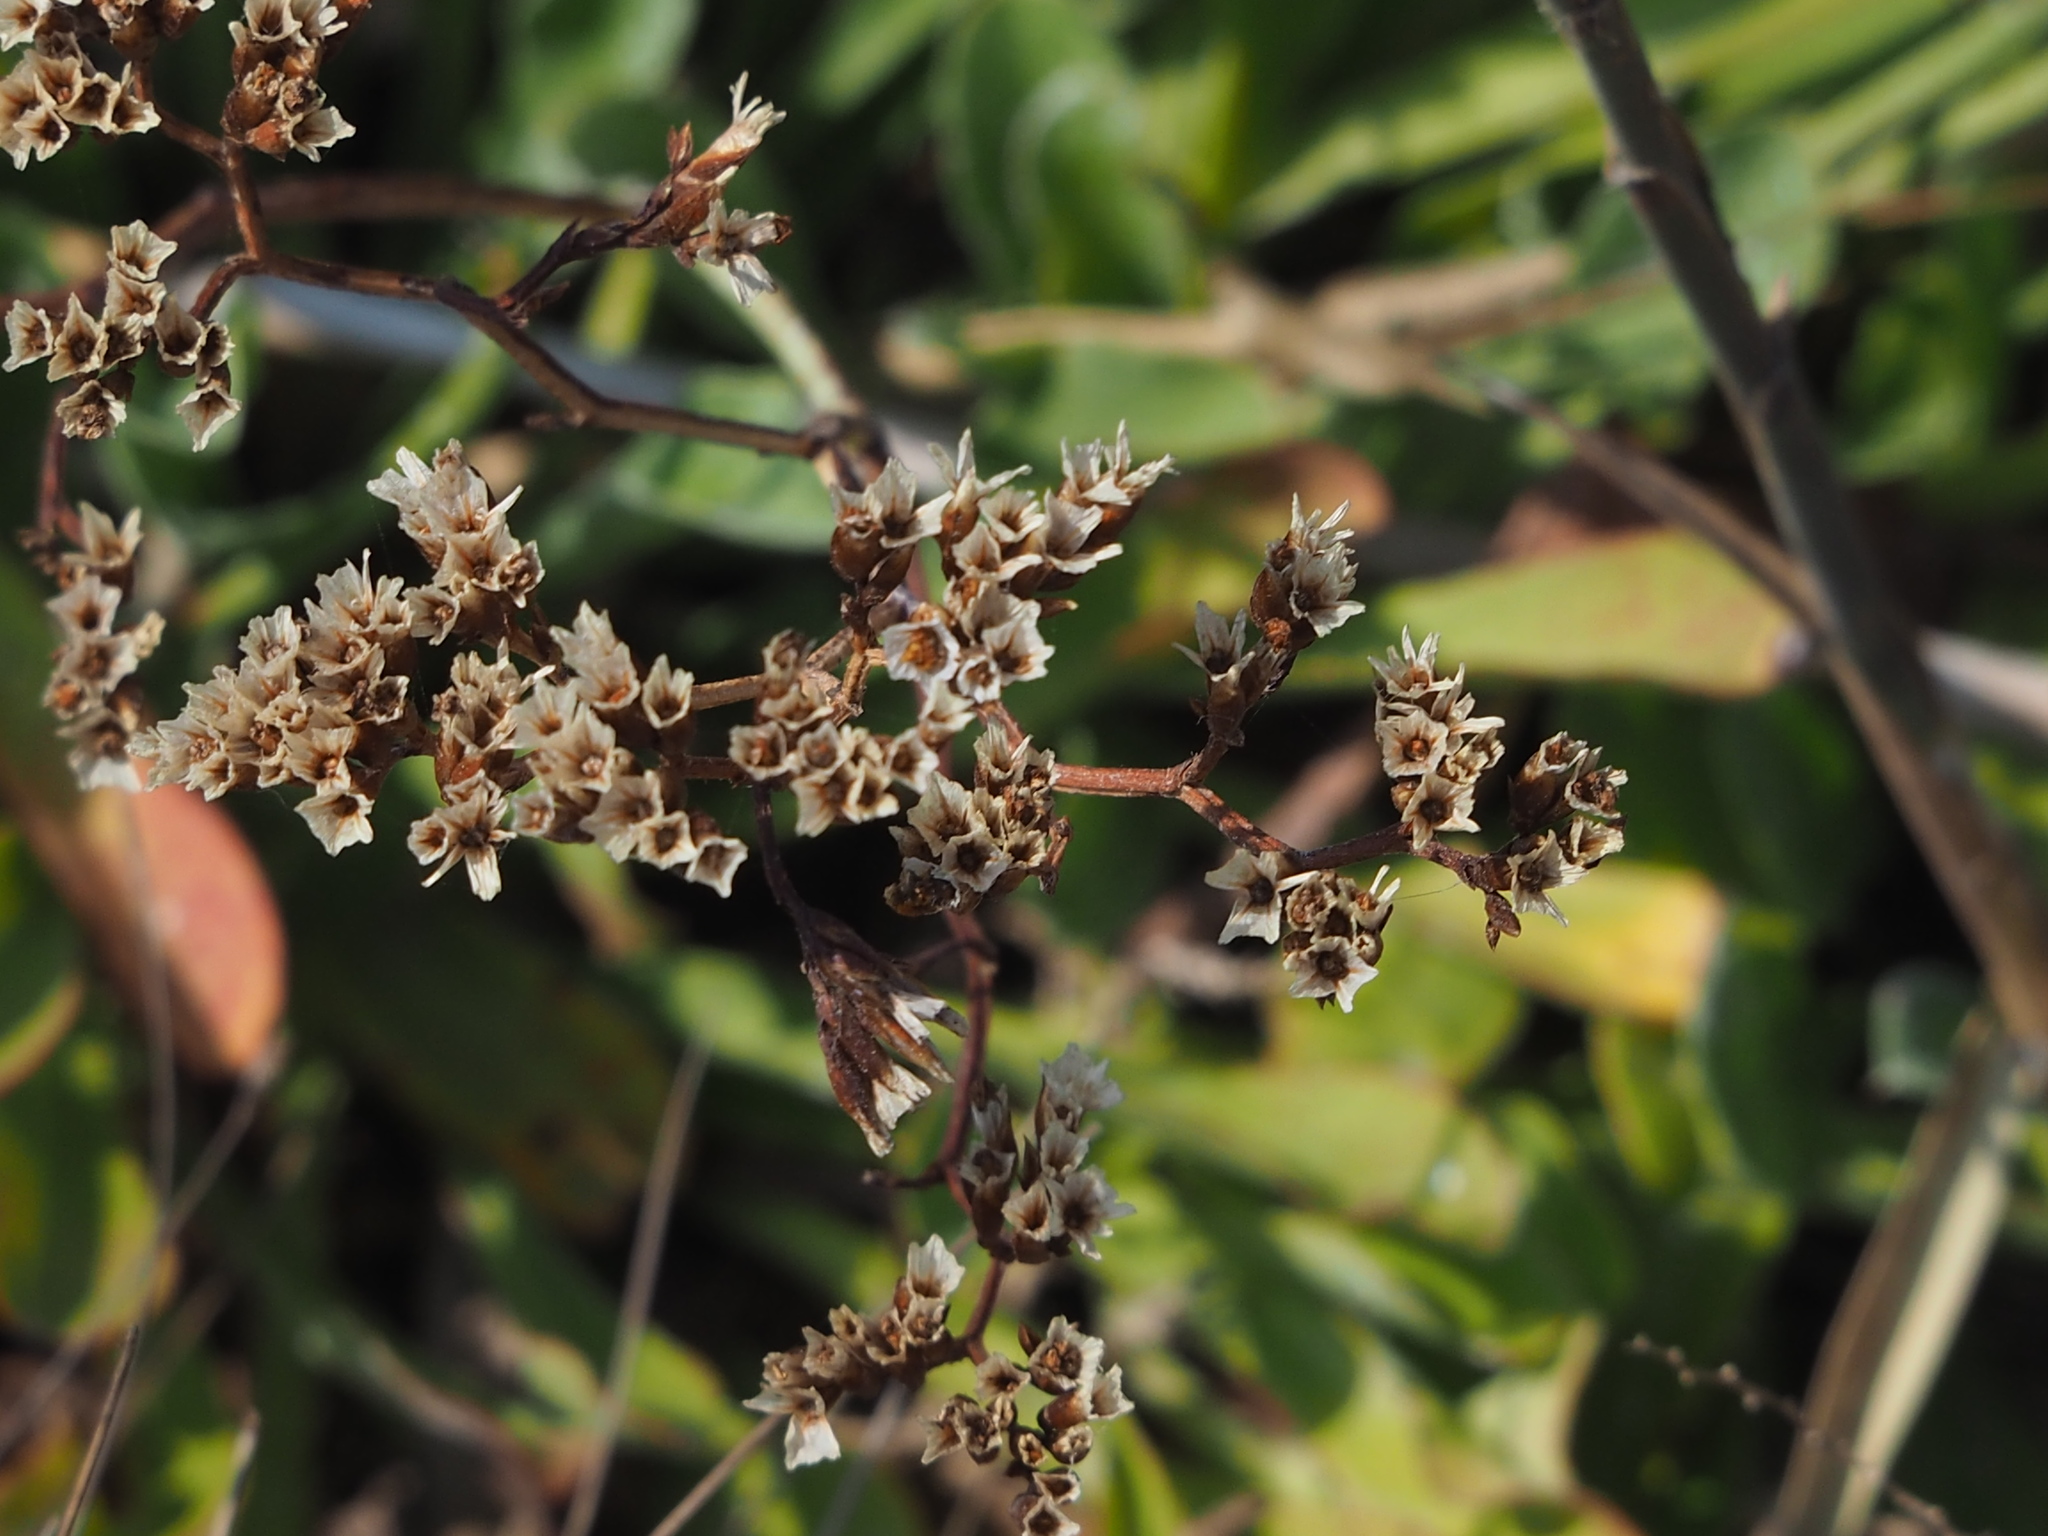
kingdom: Plantae
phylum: Tracheophyta
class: Magnoliopsida
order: Caryophyllales
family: Plumbaginaceae
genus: Limonium
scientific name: Limonium sinense
